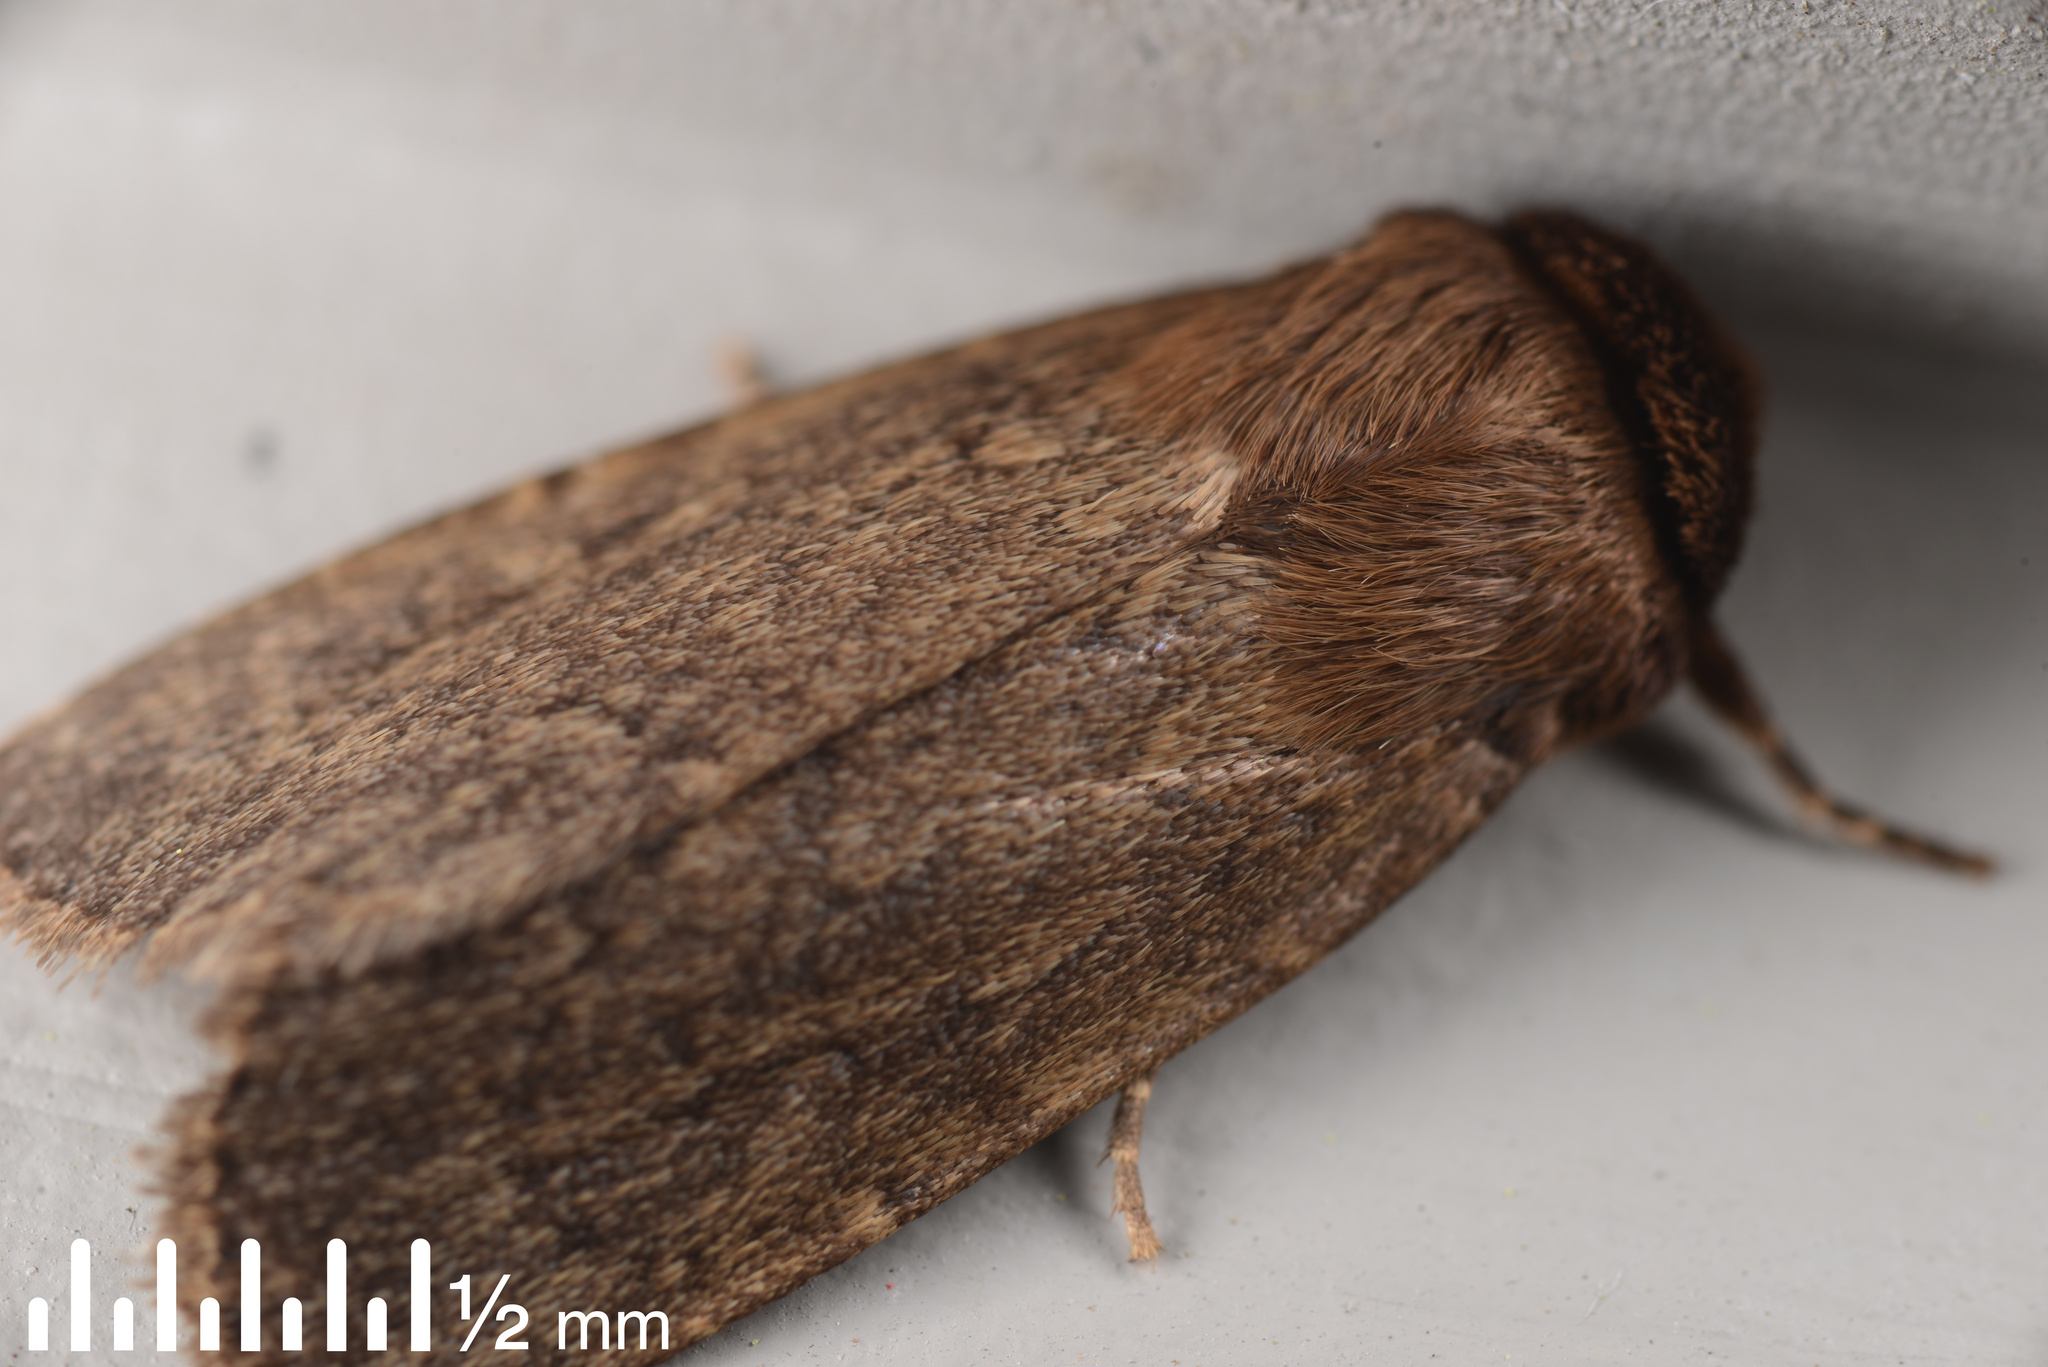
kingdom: Animalia
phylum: Arthropoda
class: Insecta
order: Lepidoptera
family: Noctuidae
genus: Bityla
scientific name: Bityla defigurata
